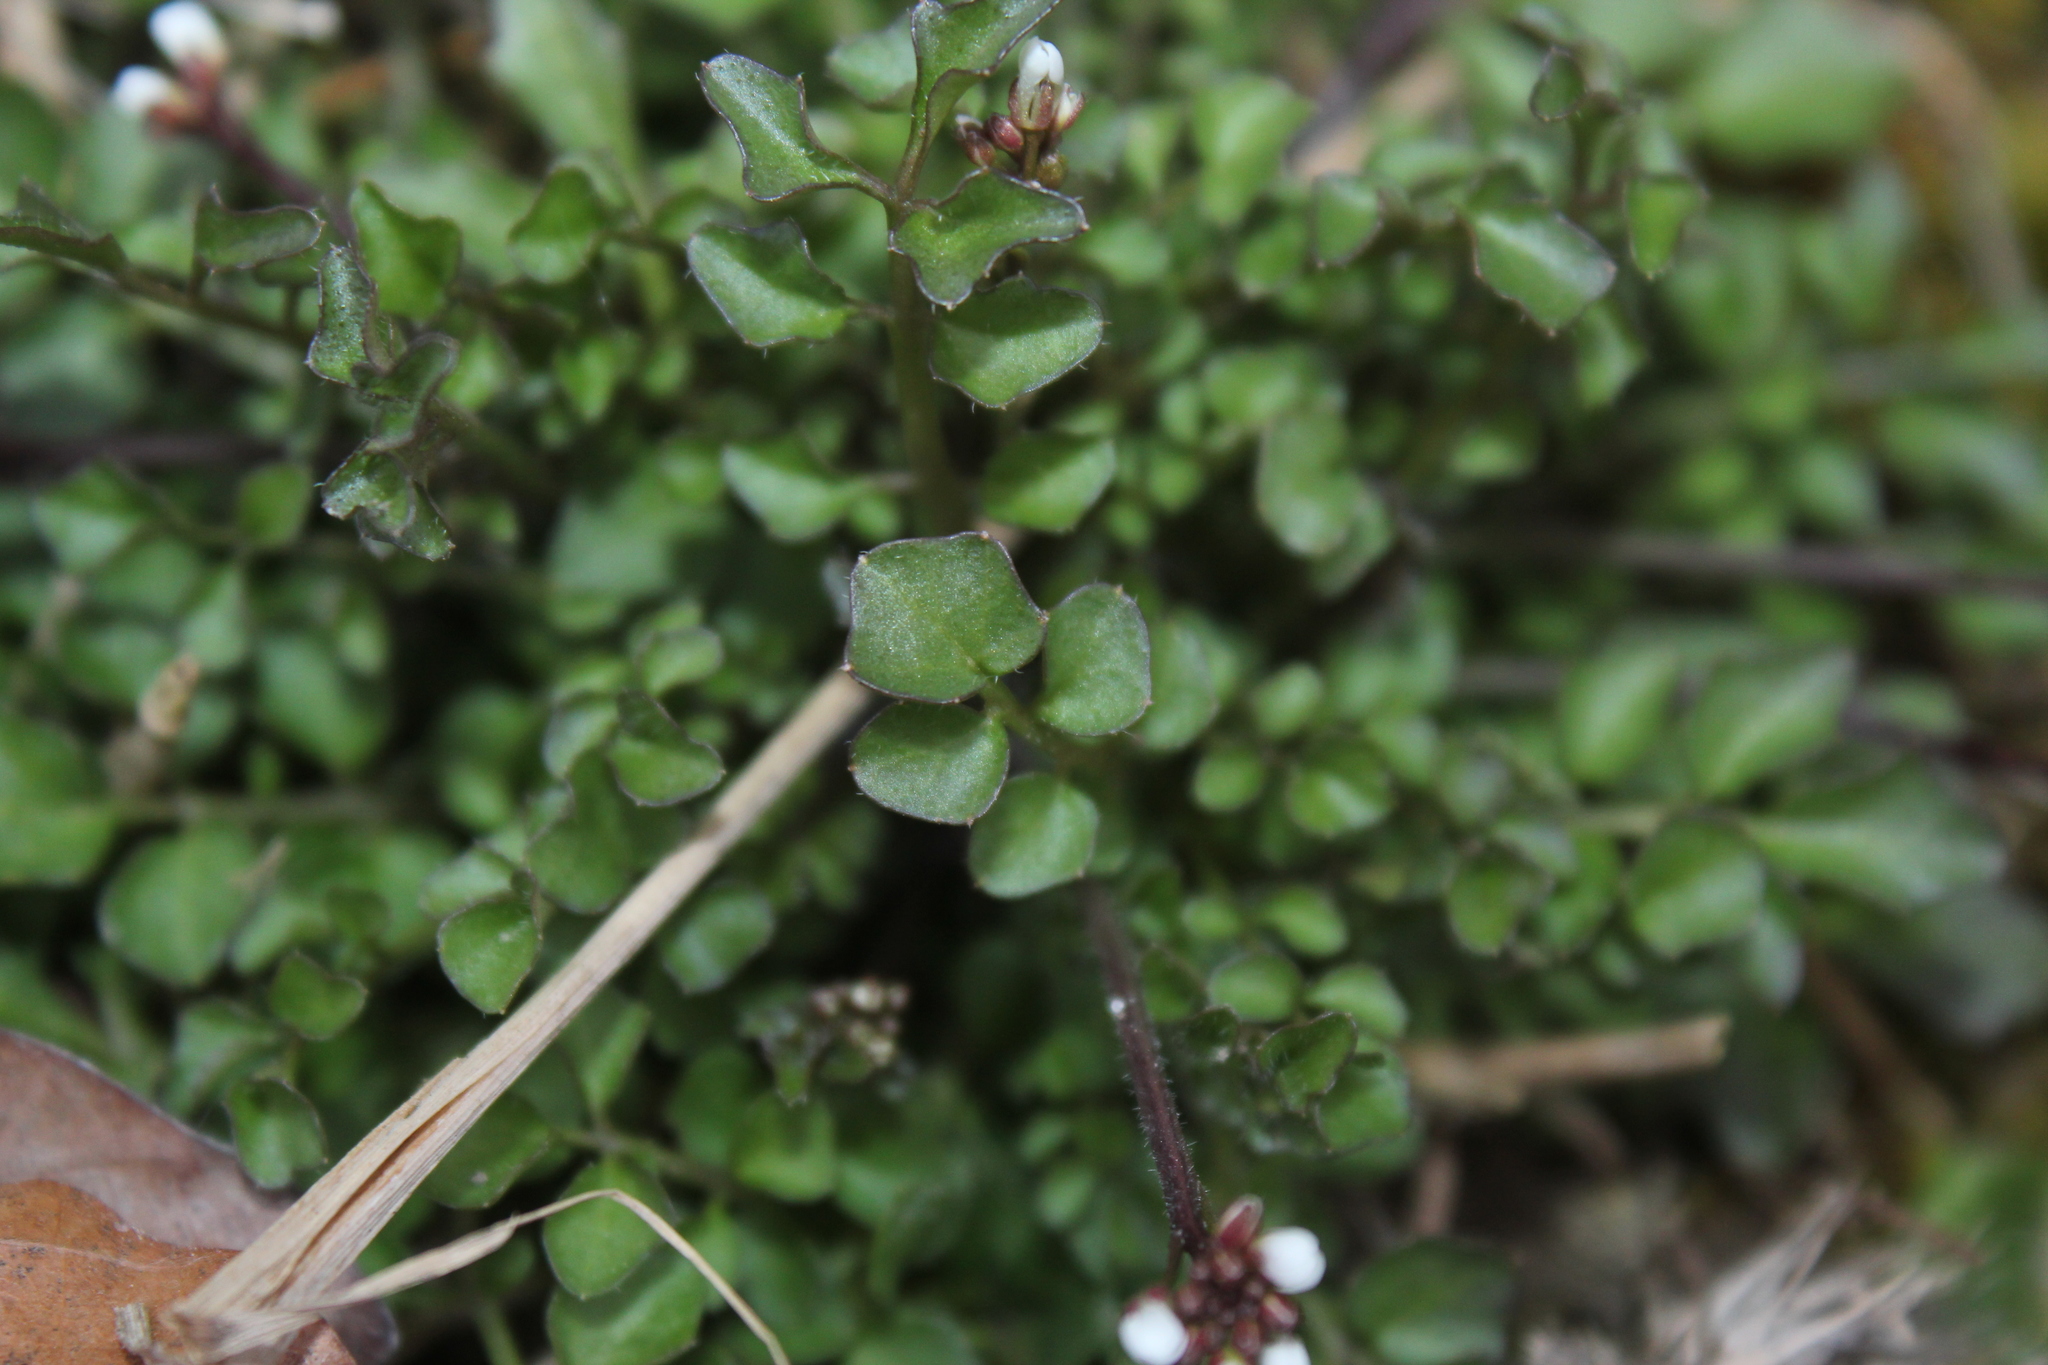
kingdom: Plantae
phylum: Tracheophyta
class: Magnoliopsida
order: Brassicales
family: Brassicaceae
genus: Cardamine
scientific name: Cardamine hirsuta
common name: Hairy bittercress
